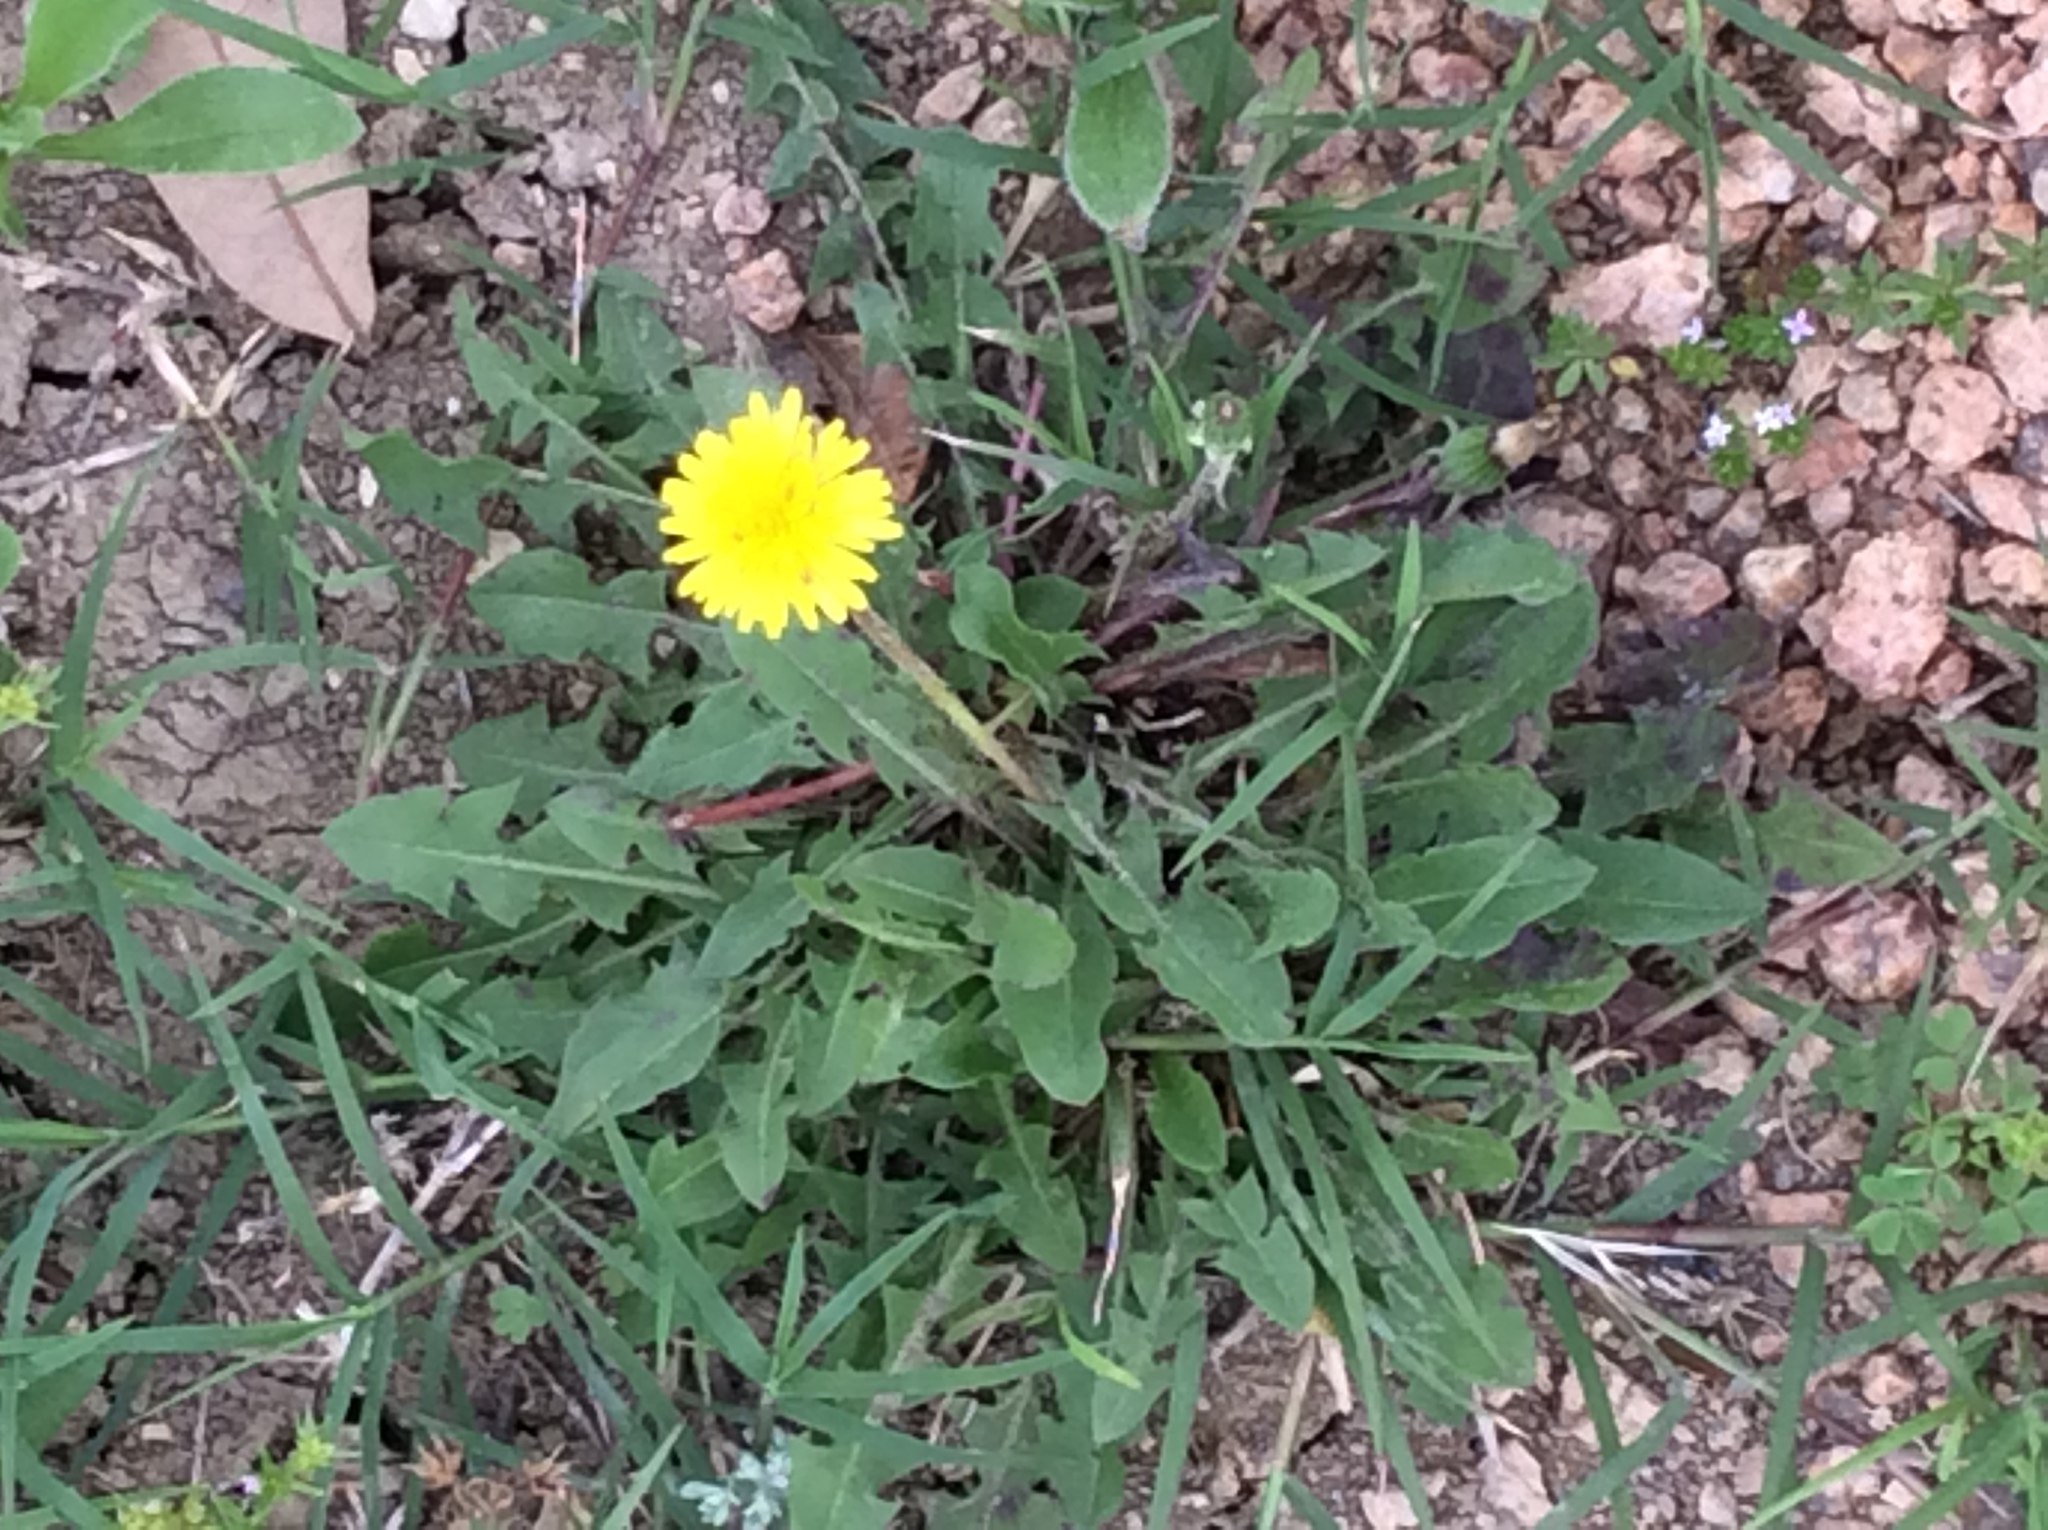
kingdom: Plantae
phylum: Tracheophyta
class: Magnoliopsida
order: Asterales
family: Asteraceae
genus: Taraxacum
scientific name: Taraxacum officinale
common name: Common dandelion
